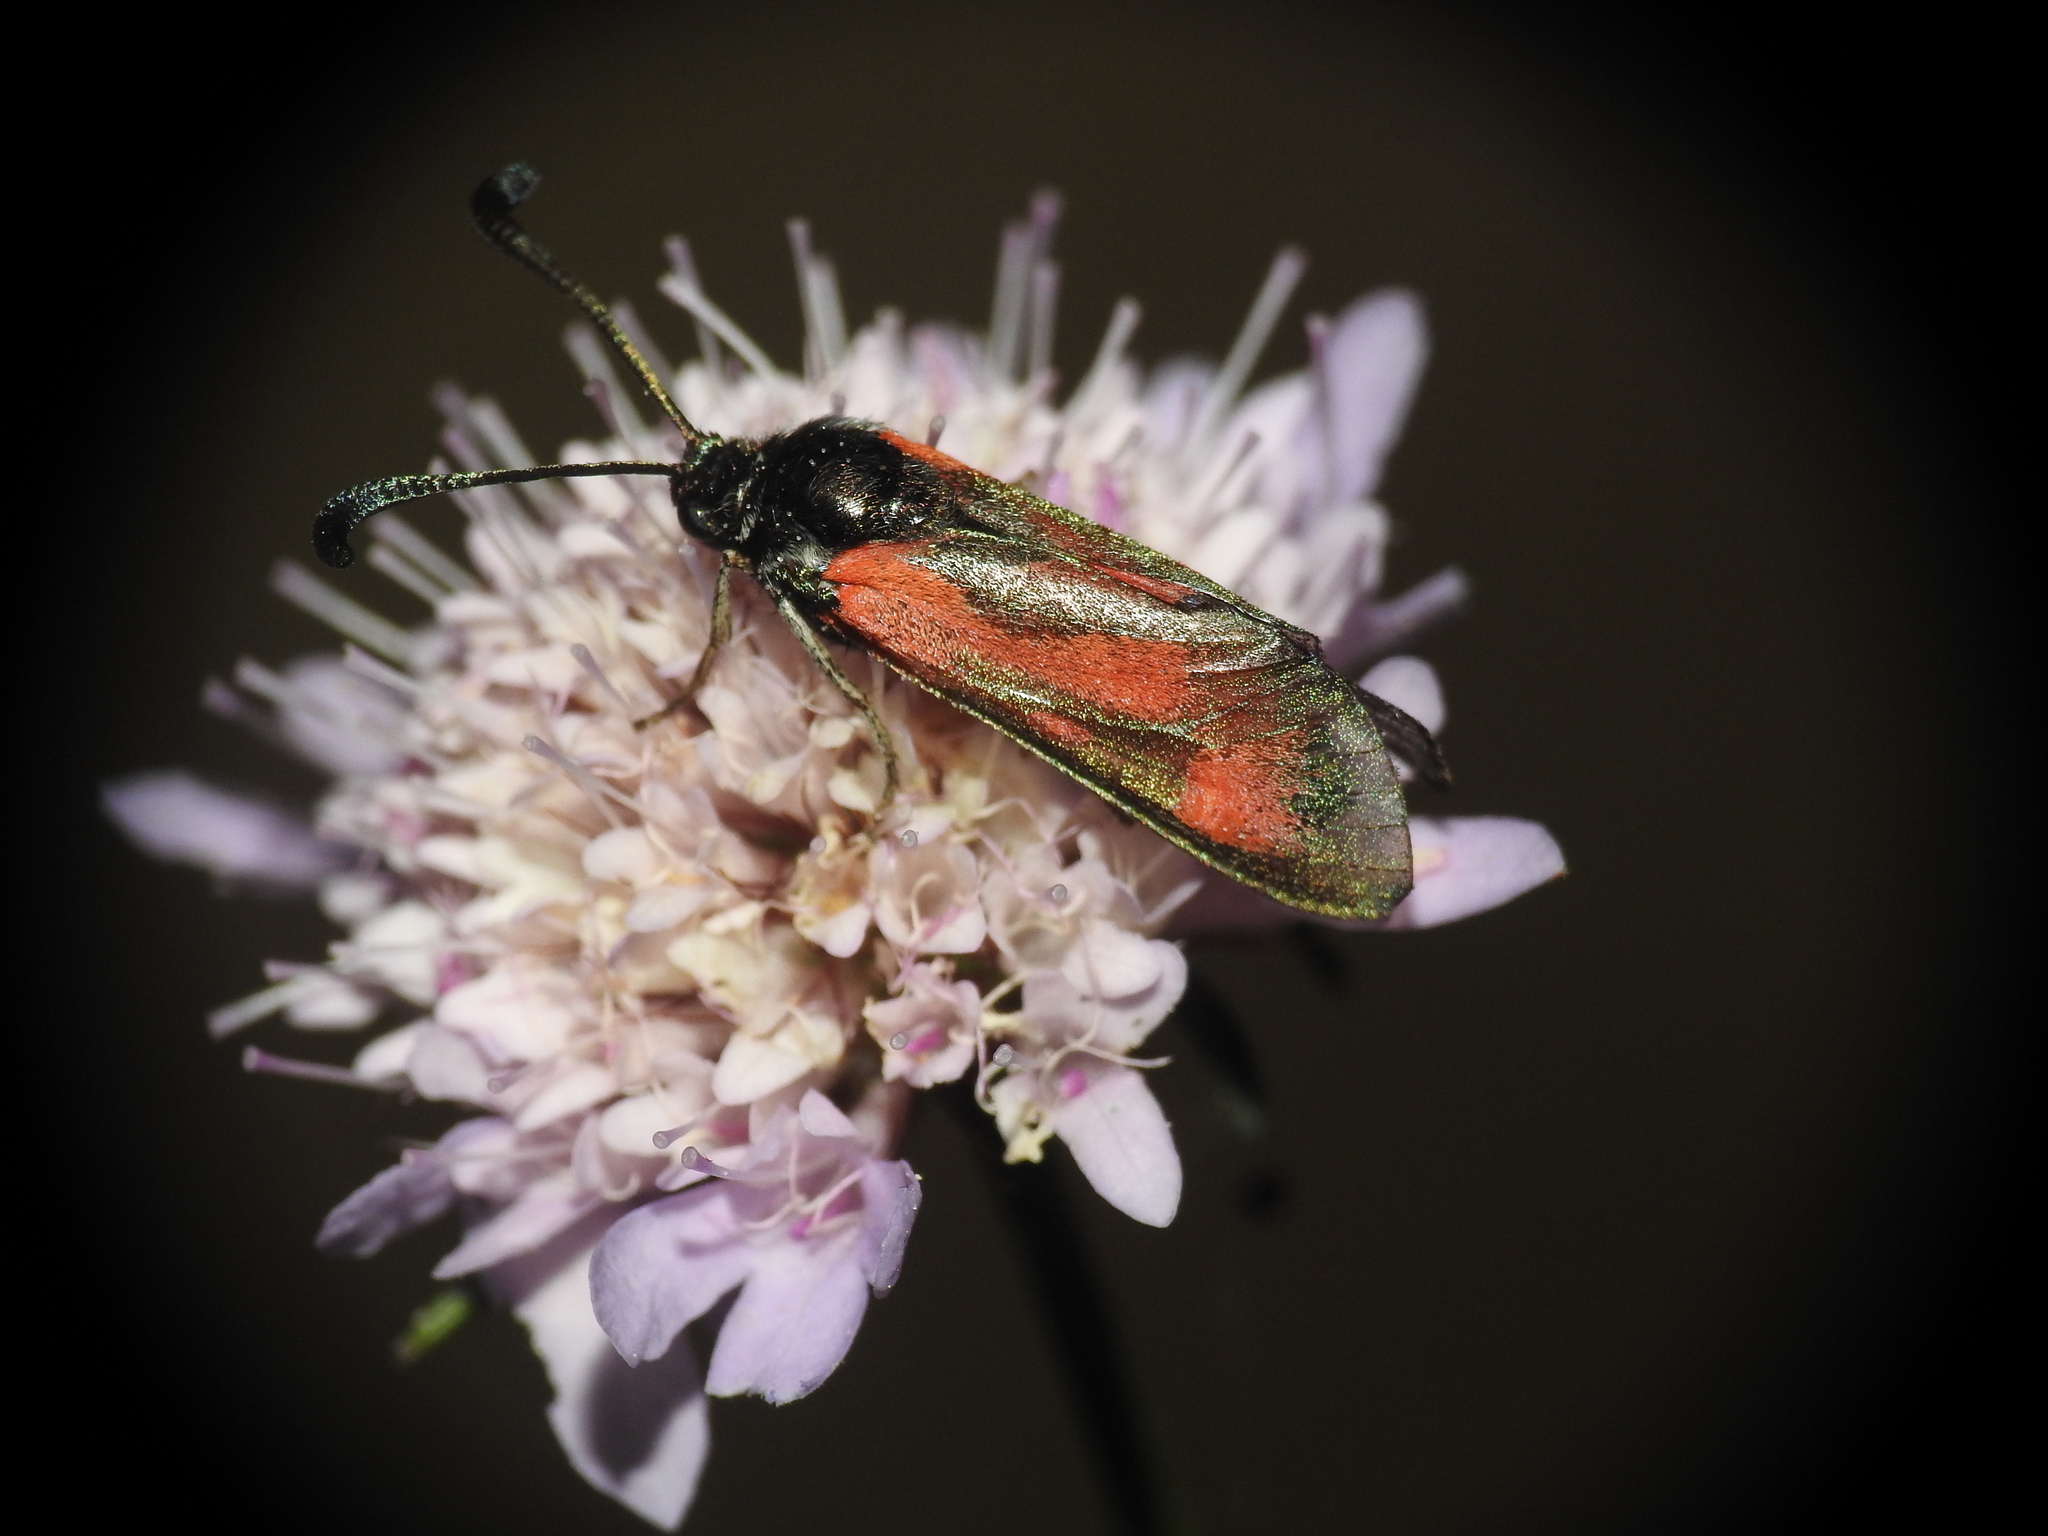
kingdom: Animalia
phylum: Arthropoda
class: Insecta
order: Lepidoptera
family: Zygaenidae
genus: Zygaena
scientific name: Zygaena sarpedon
